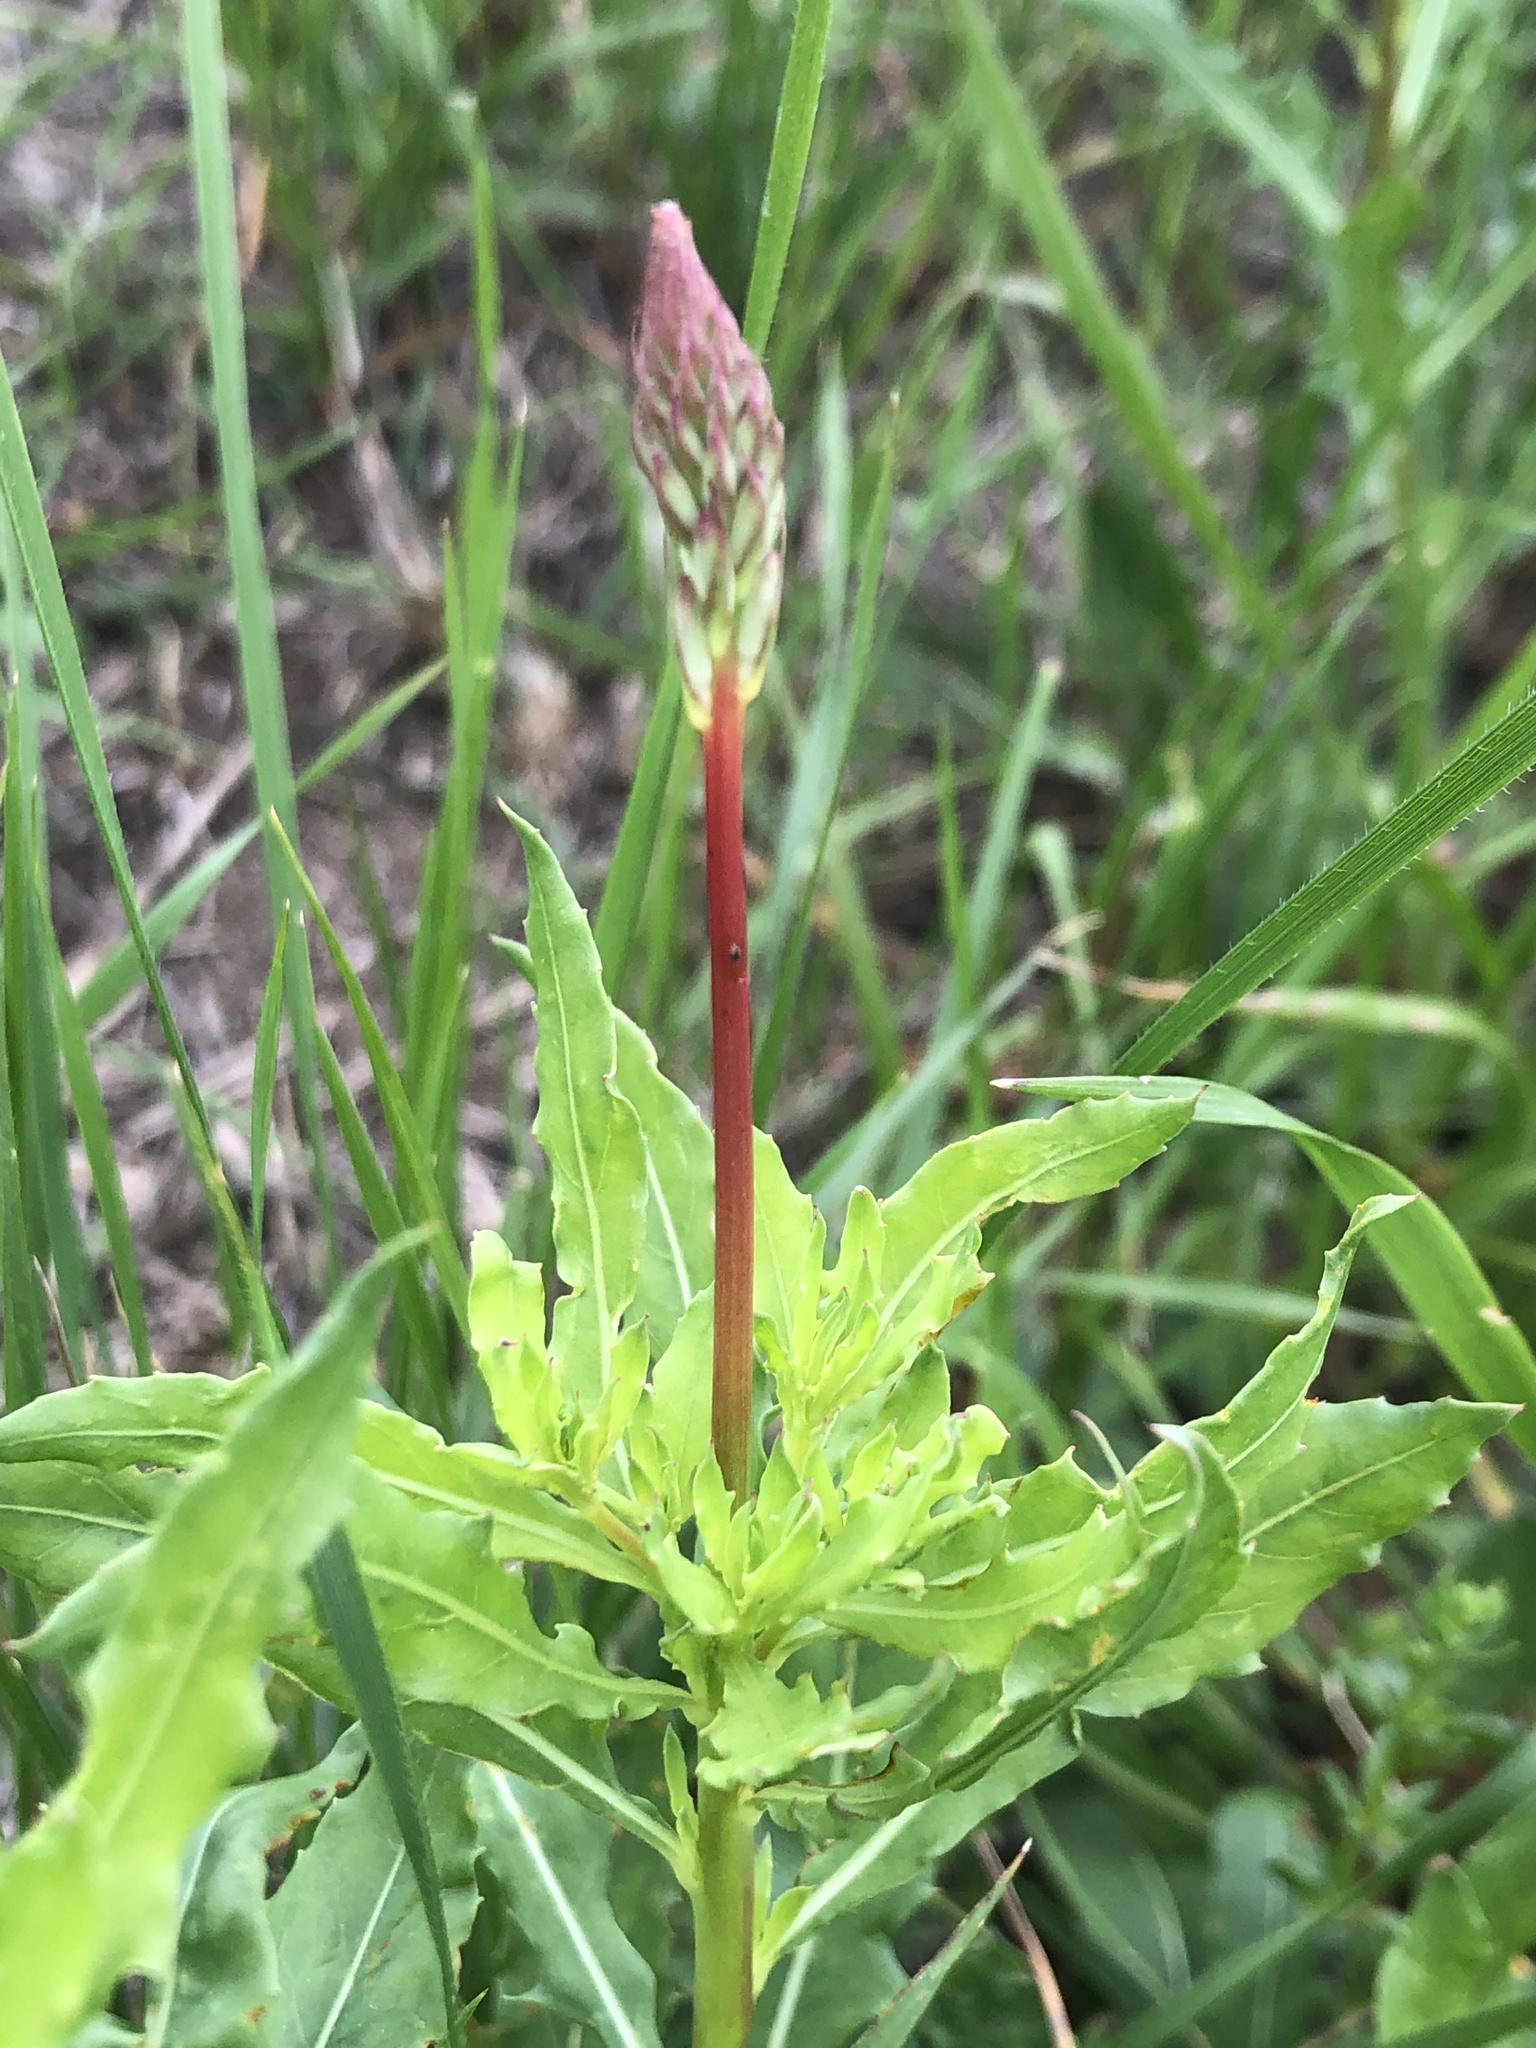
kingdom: Plantae
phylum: Tracheophyta
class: Magnoliopsida
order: Myrtales
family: Onagraceae
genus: Oenothera
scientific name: Oenothera suffulta
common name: Kisses
